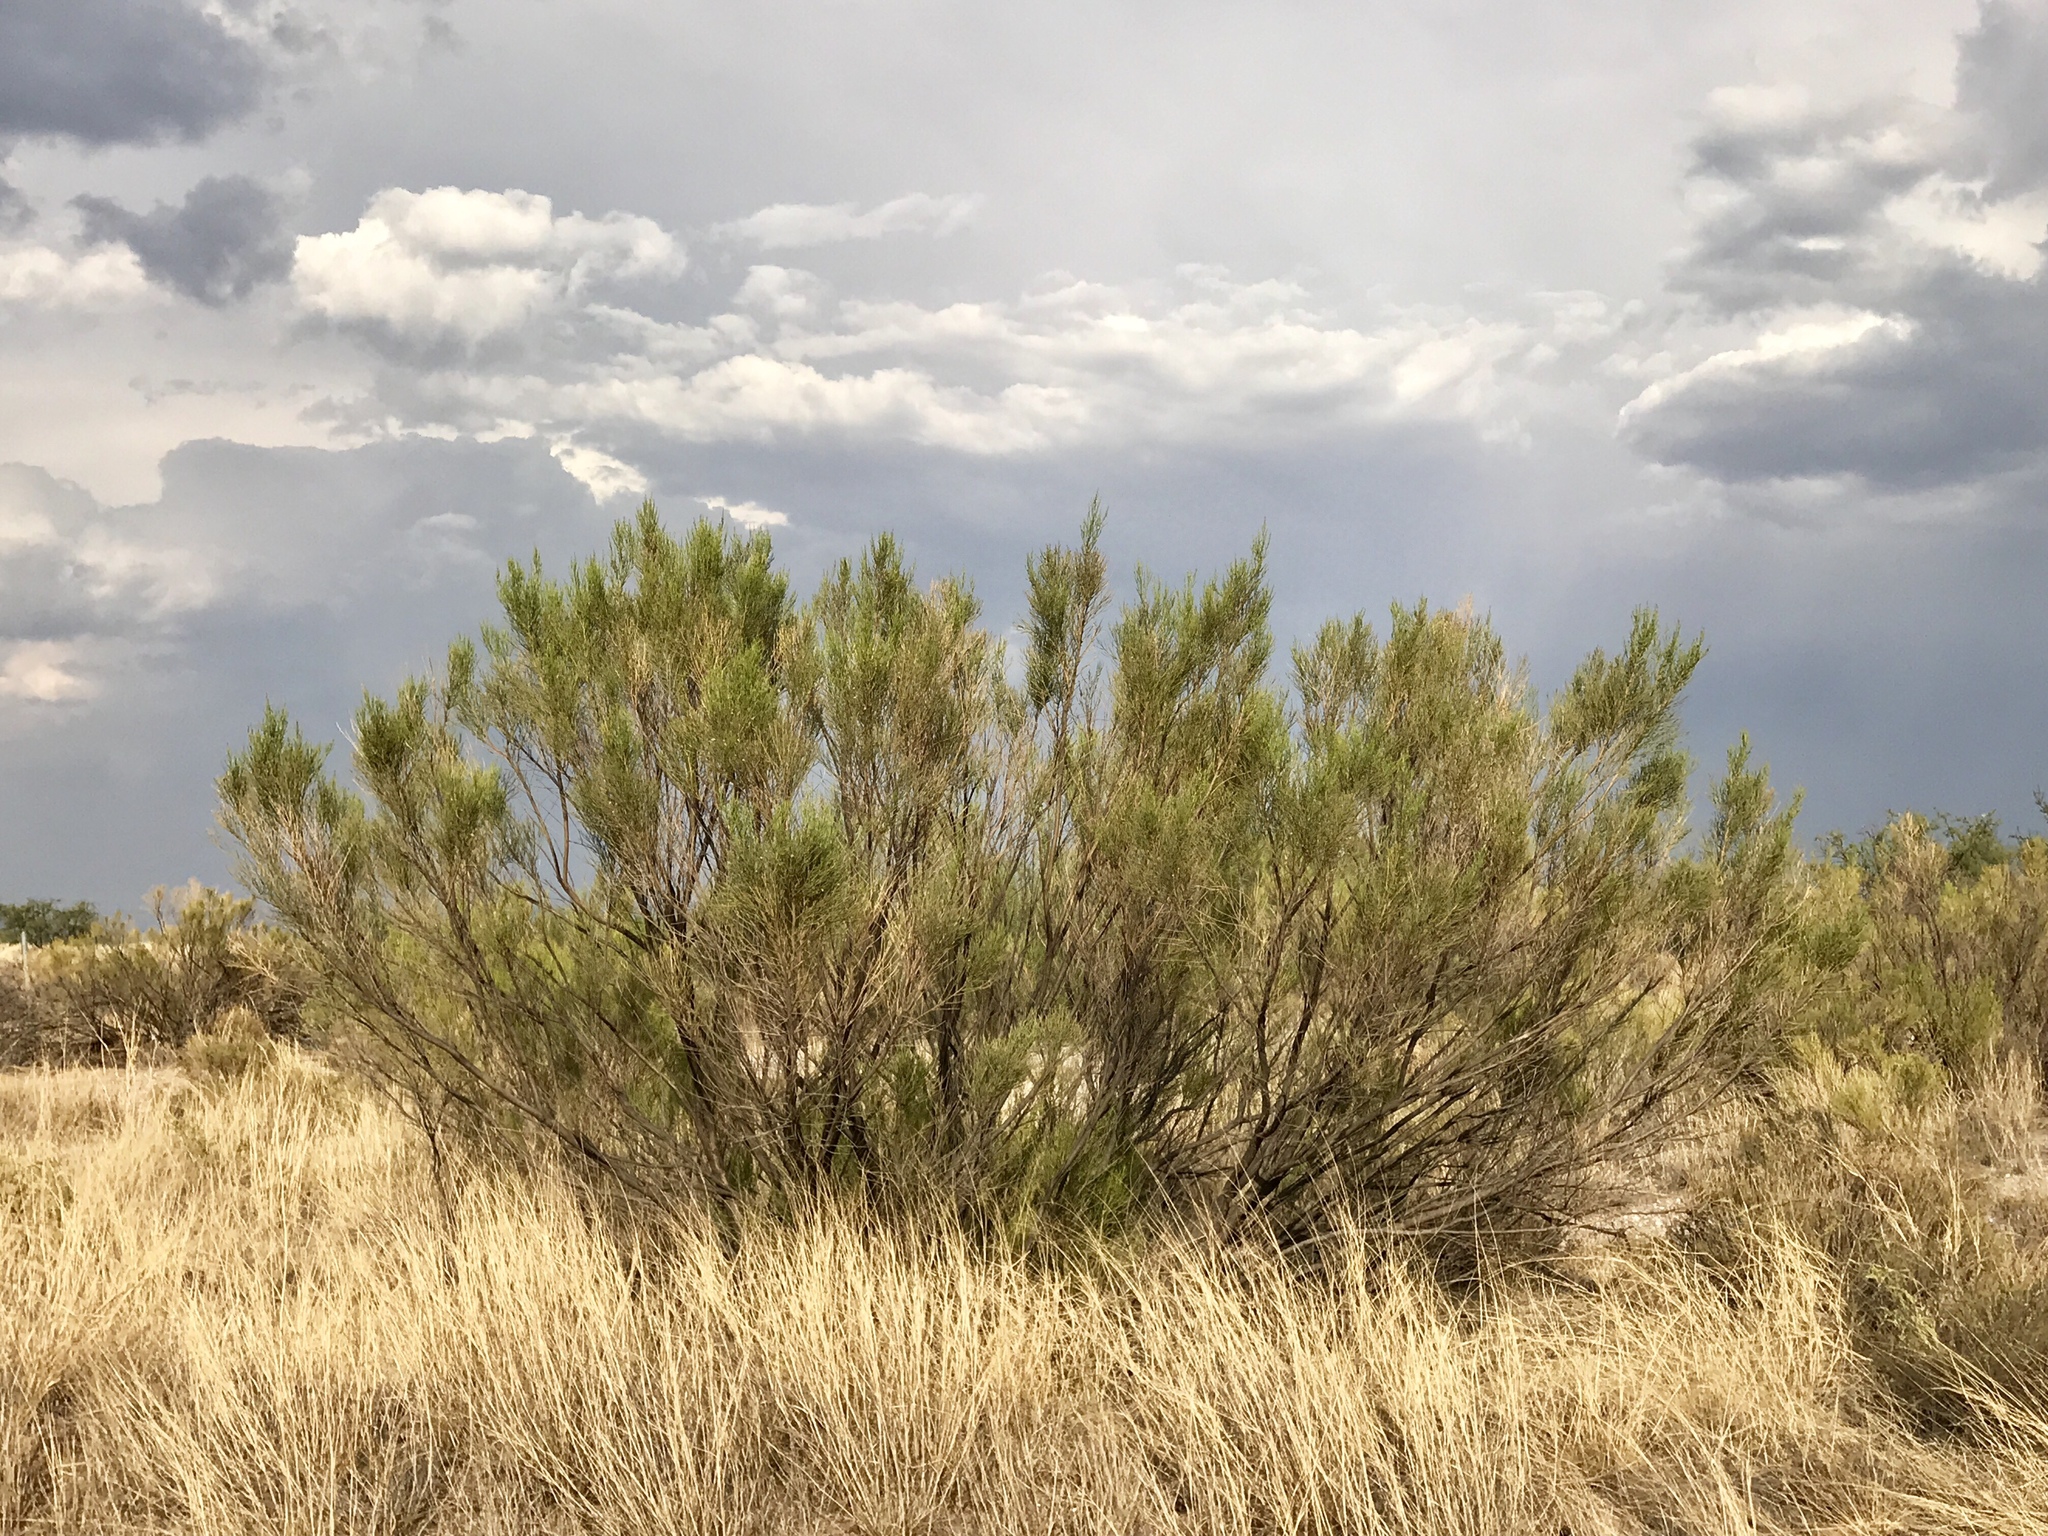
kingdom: Plantae
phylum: Tracheophyta
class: Magnoliopsida
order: Asterales
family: Asteraceae
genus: Baccharis
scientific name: Baccharis sarothroides
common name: Desert-broom
